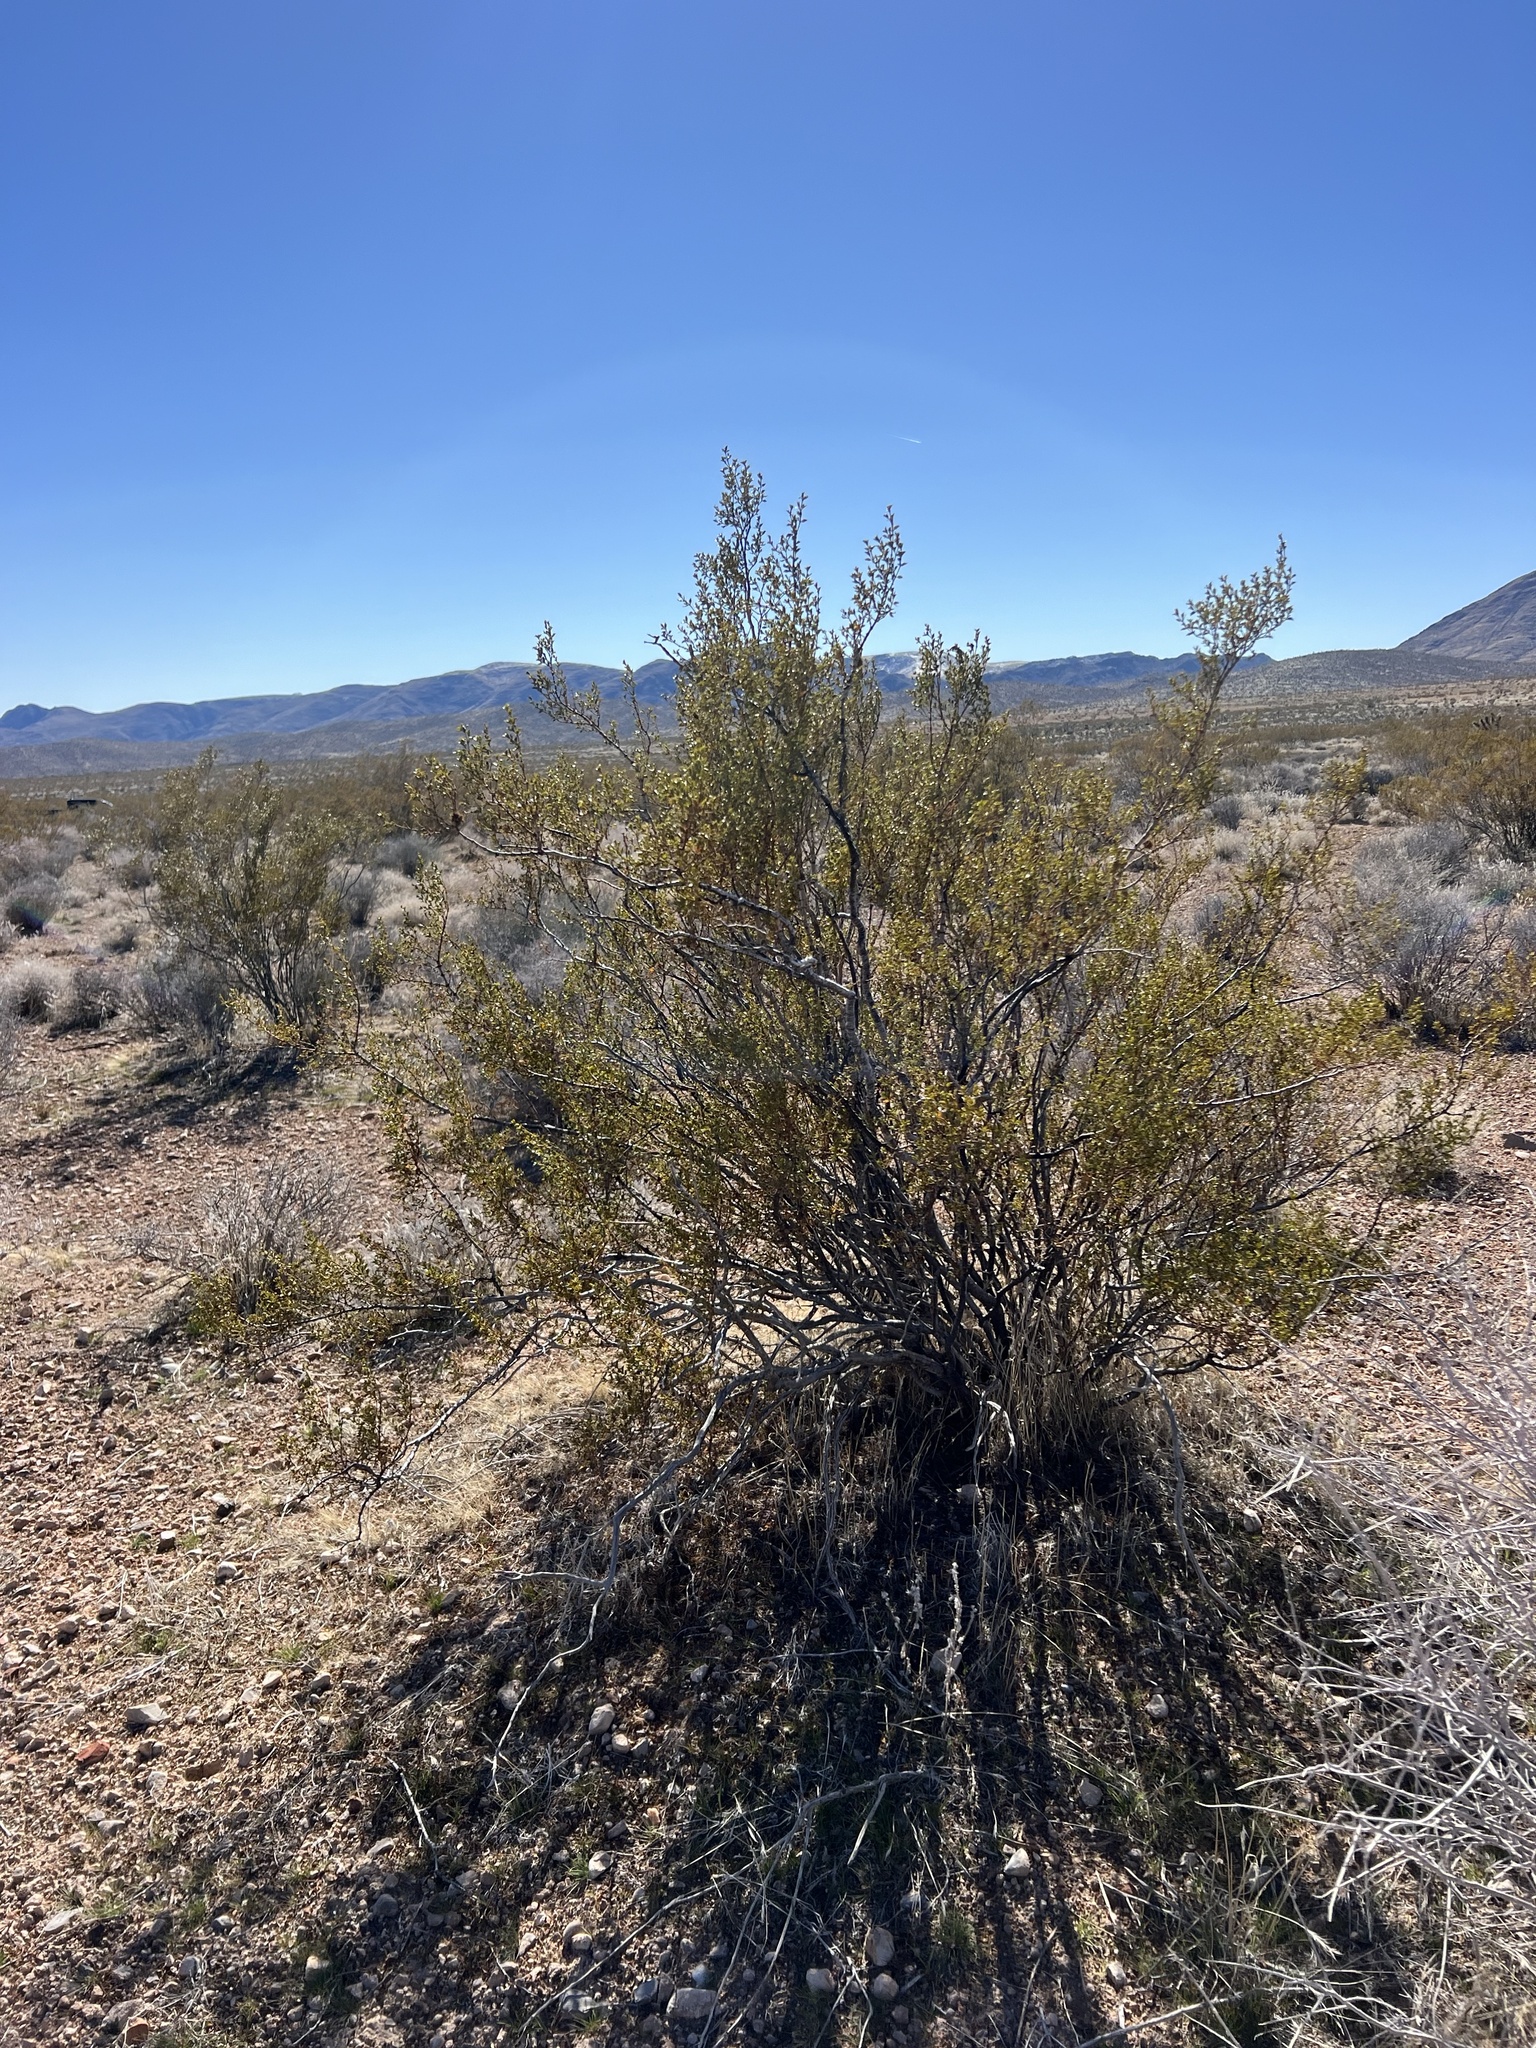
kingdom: Plantae
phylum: Tracheophyta
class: Magnoliopsida
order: Zygophyllales
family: Zygophyllaceae
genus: Larrea
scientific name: Larrea tridentata
